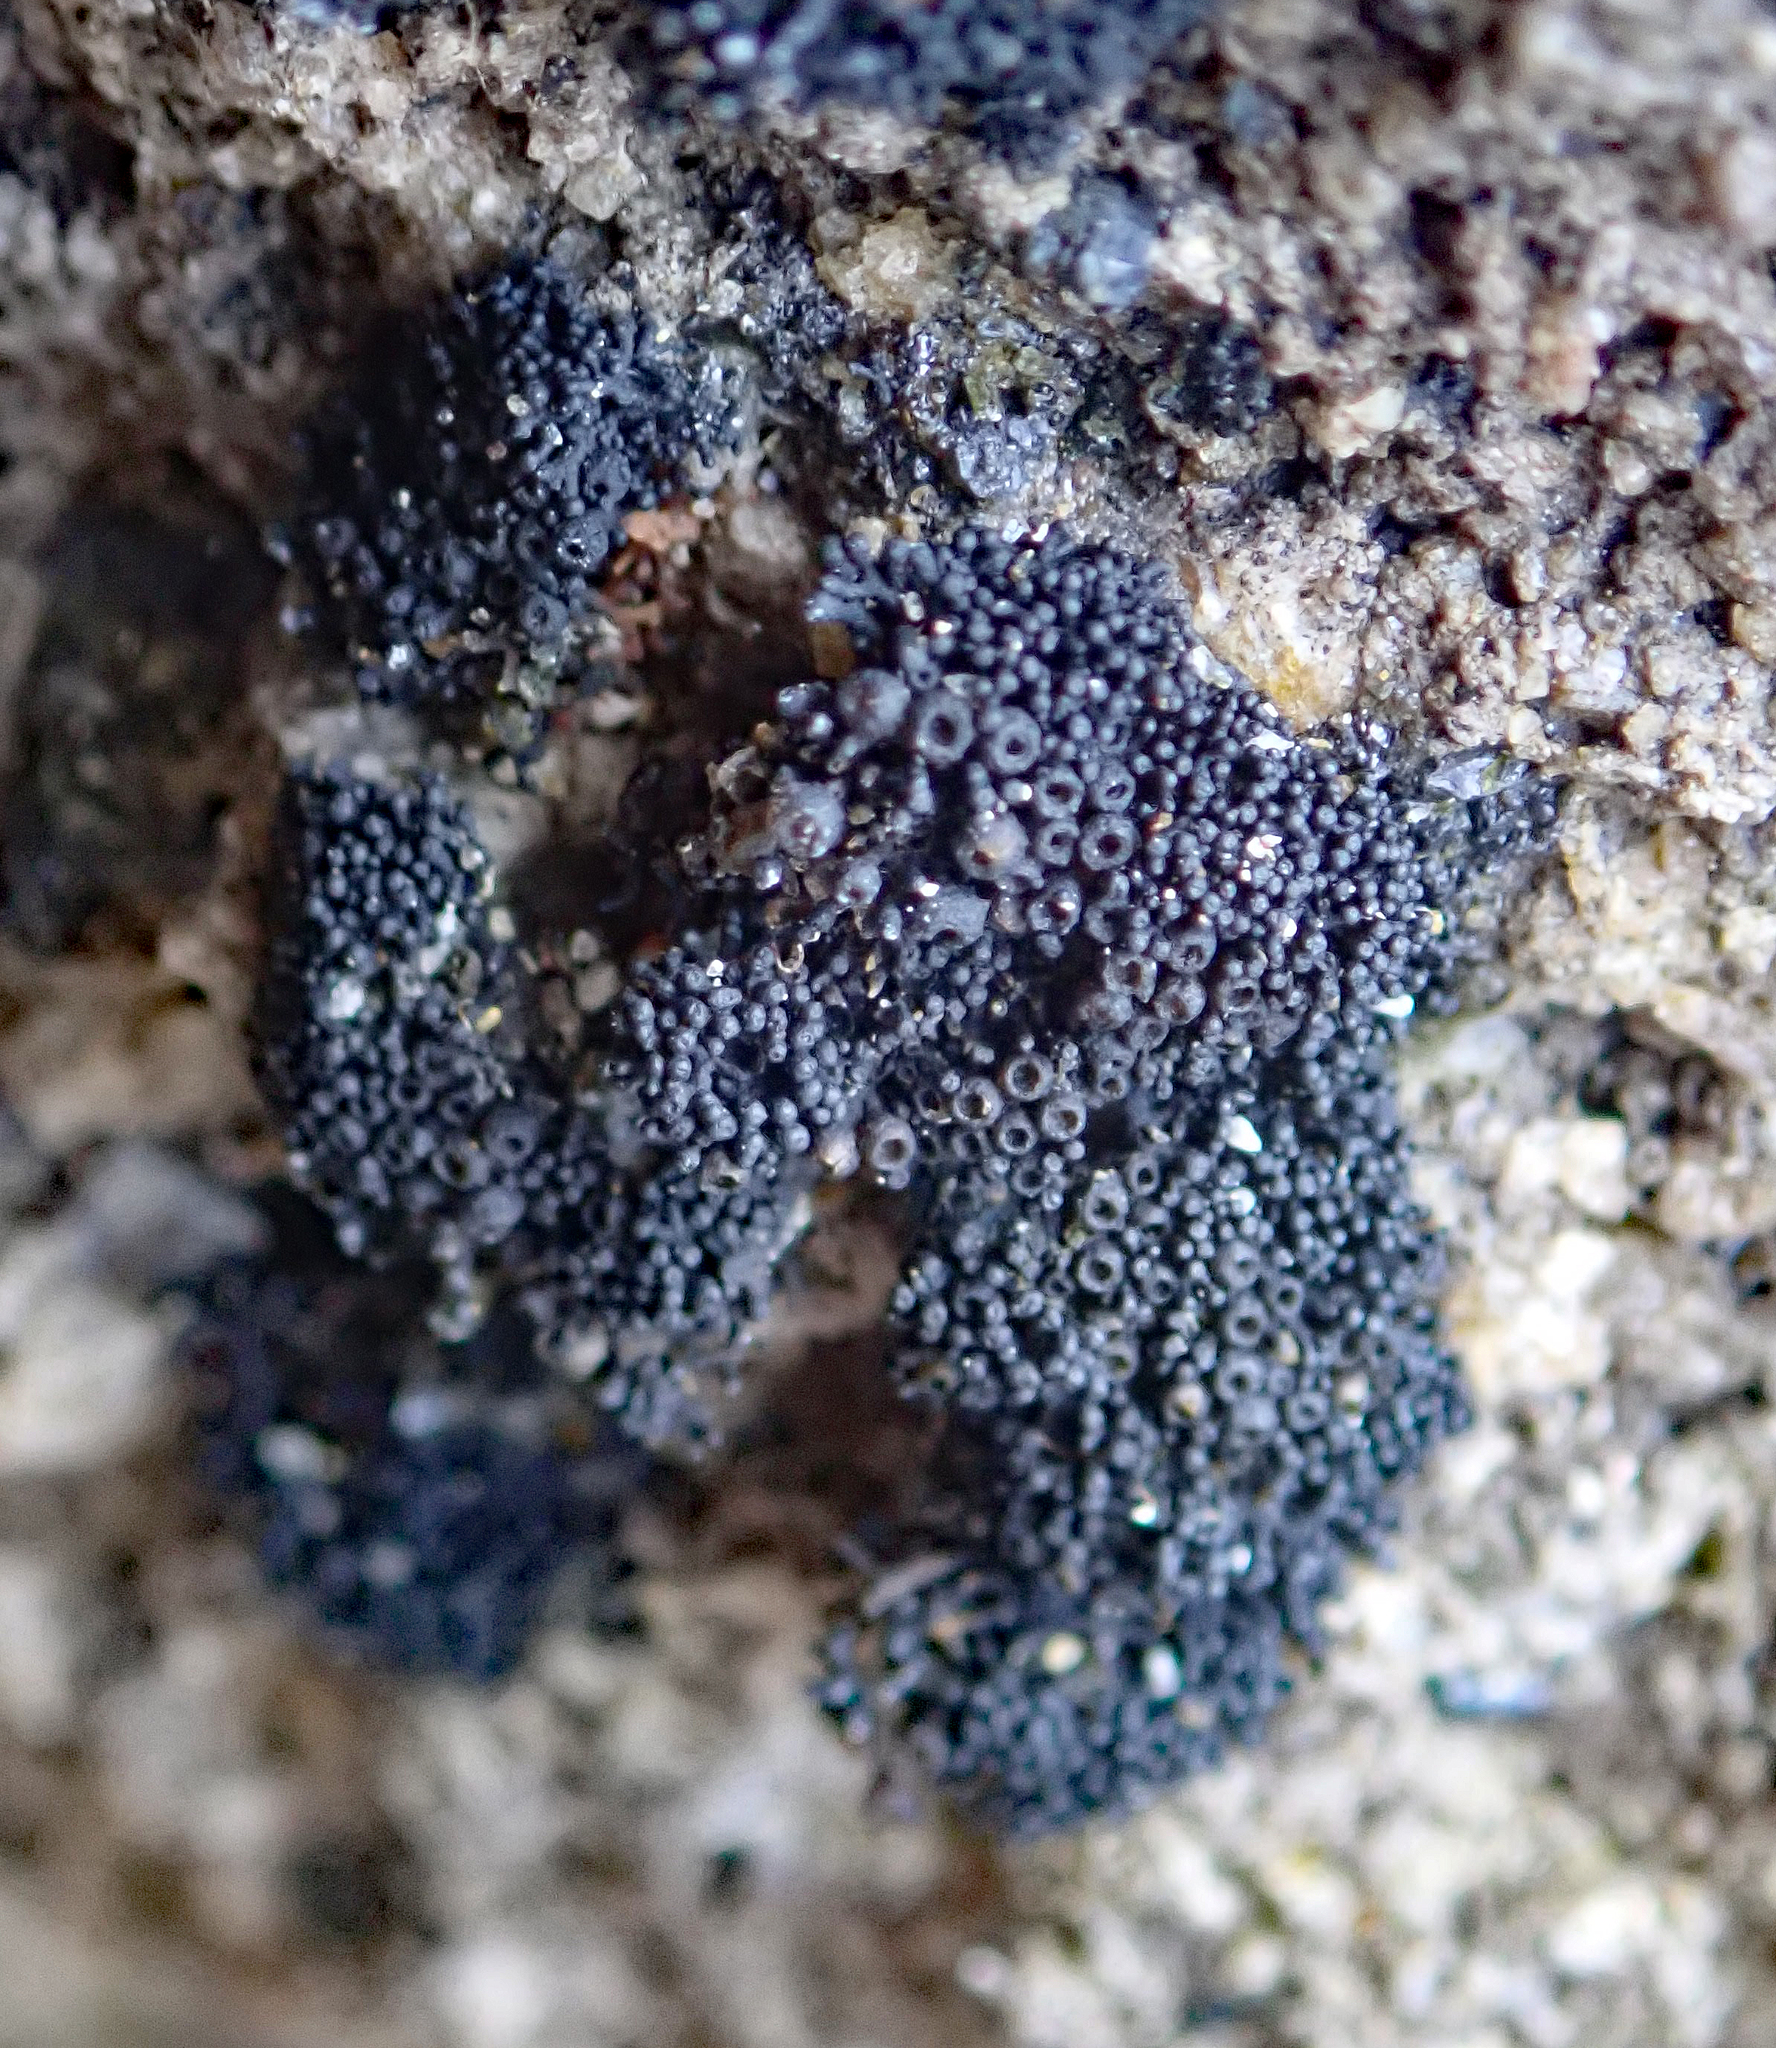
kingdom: Fungi
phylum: Ascomycota
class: Lichinomycetes
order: Lichinales
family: Lichinaceae
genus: Lichina
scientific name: Lichina intermedia
